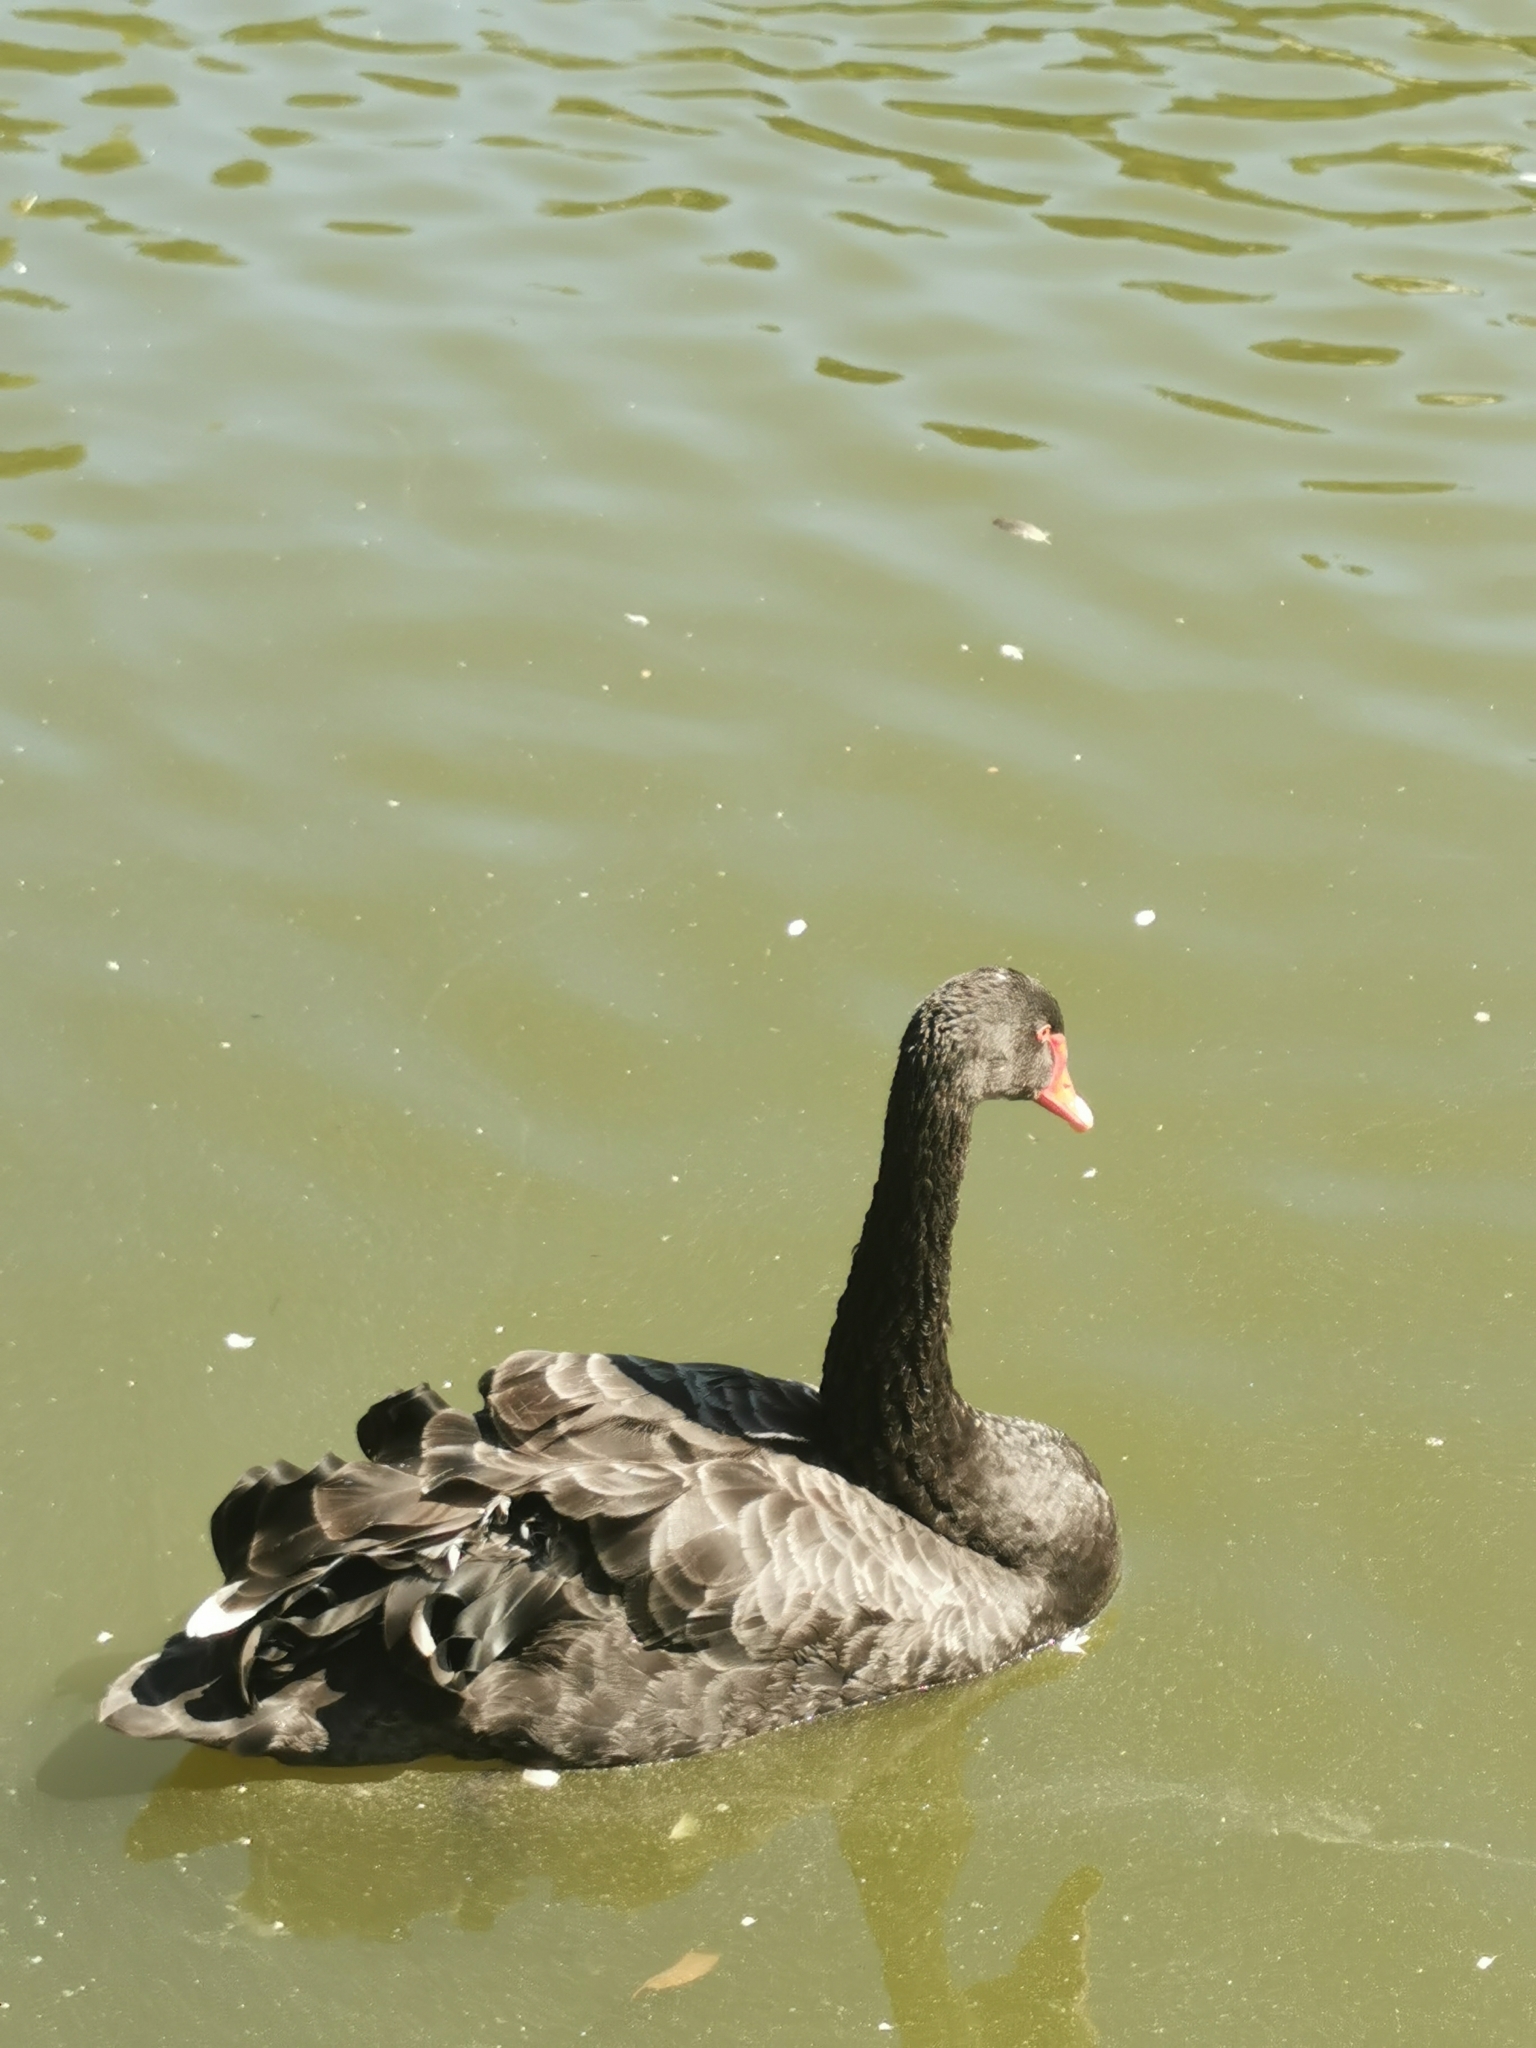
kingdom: Animalia
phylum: Chordata
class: Aves
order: Anseriformes
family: Anatidae
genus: Cygnus
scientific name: Cygnus atratus
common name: Black swan
